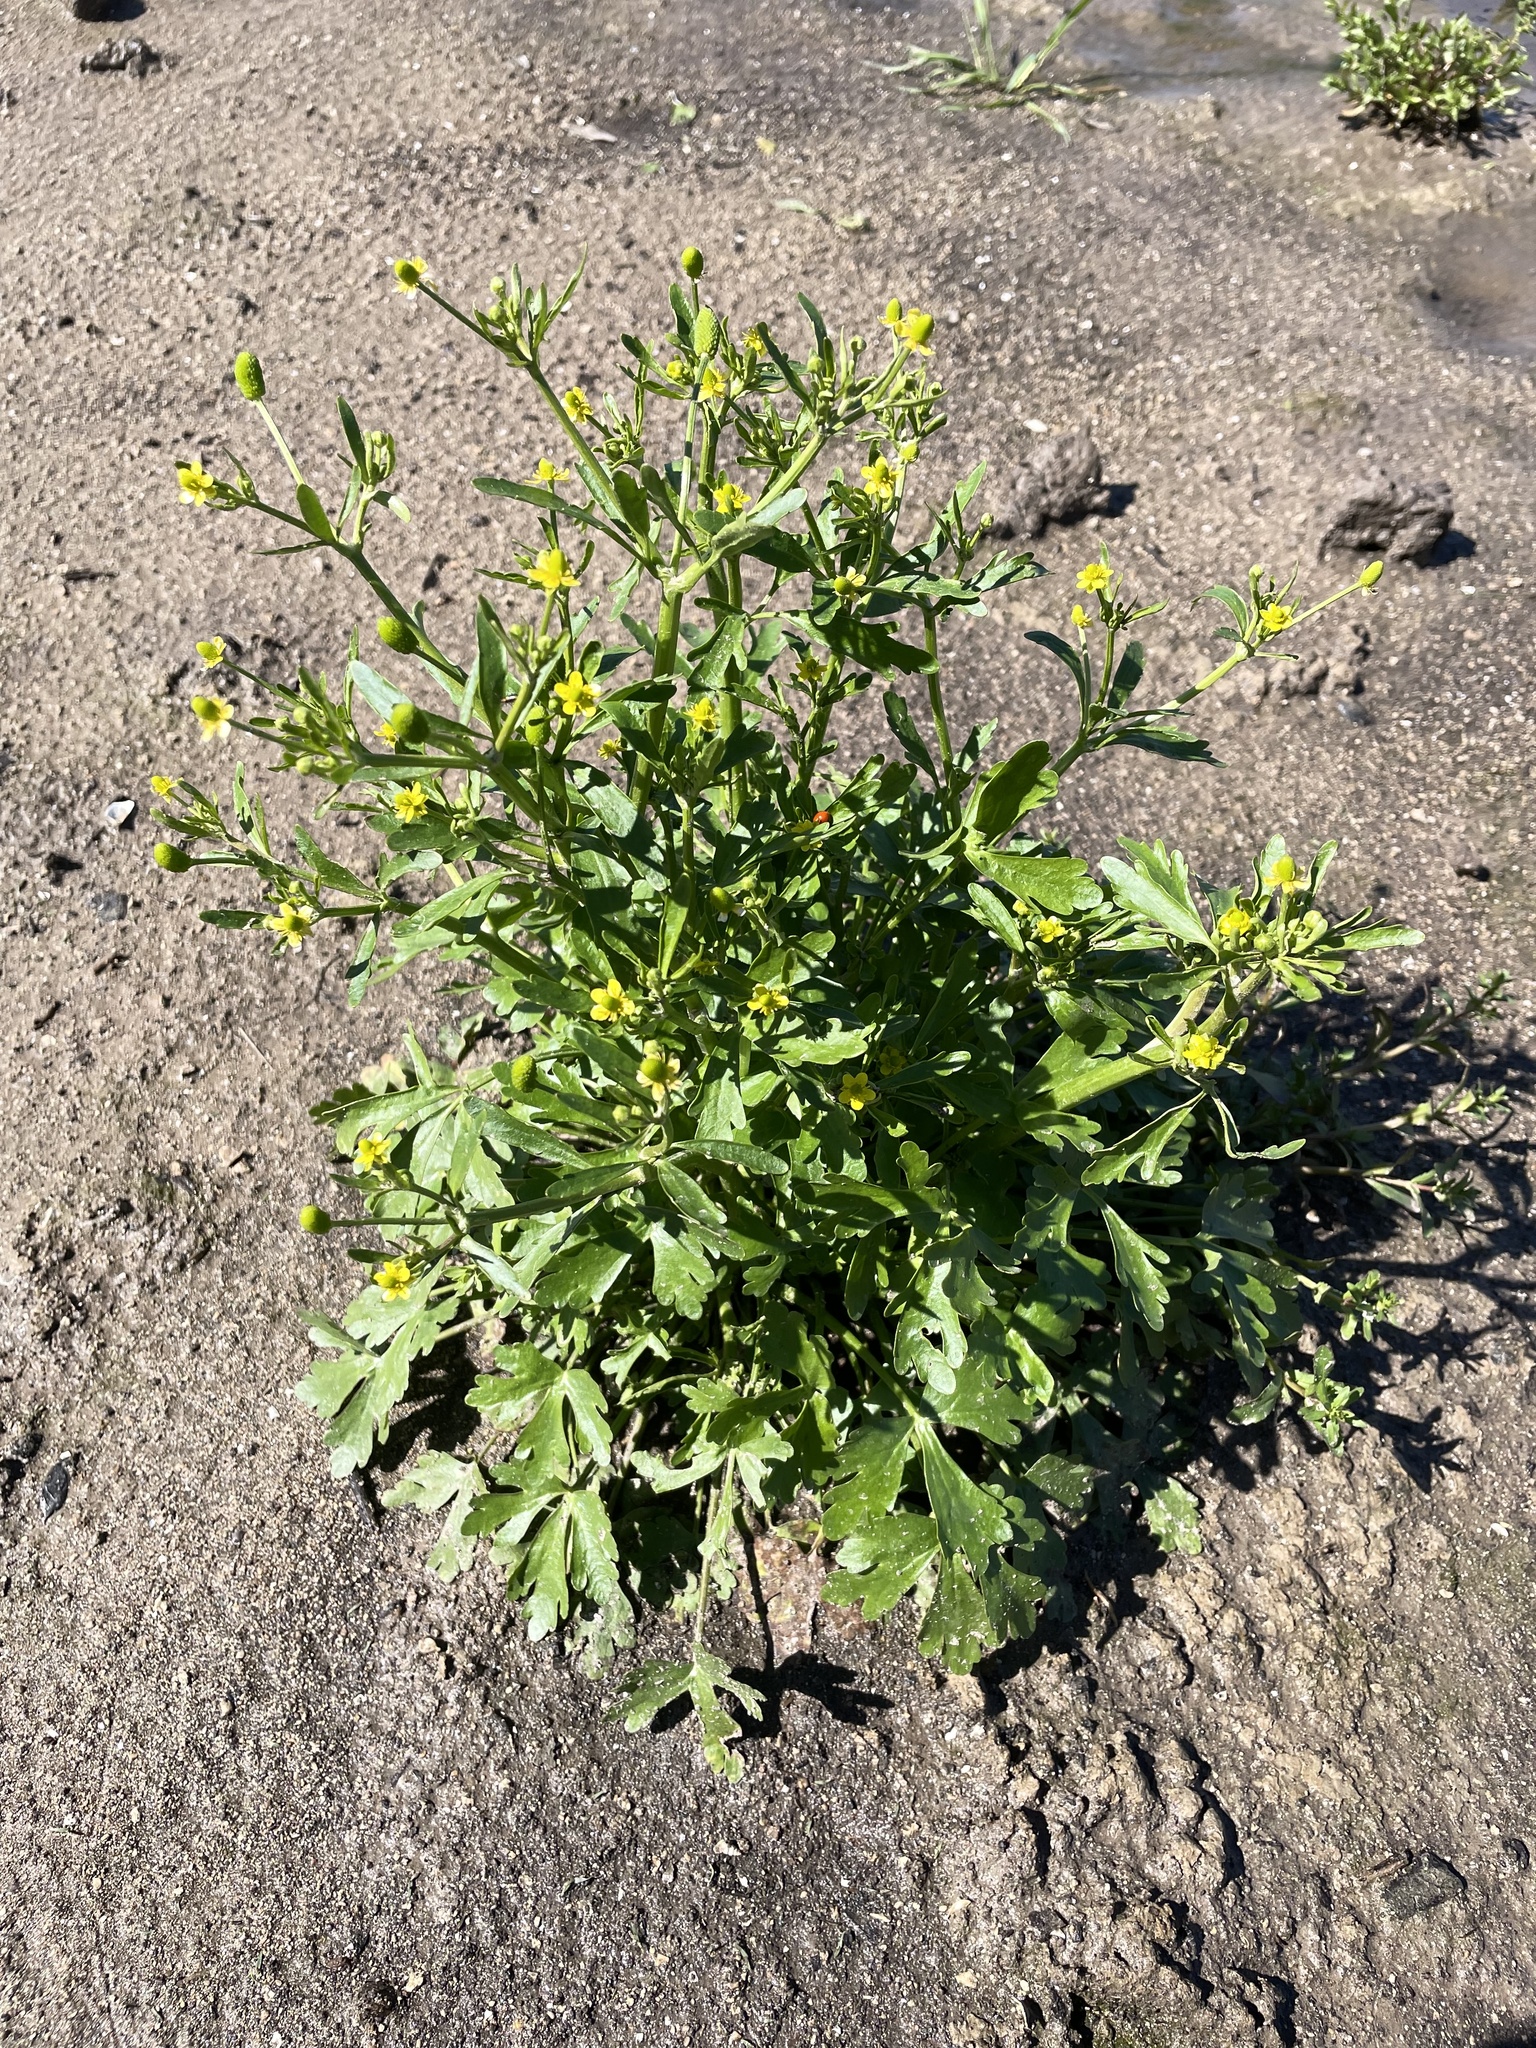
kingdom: Plantae
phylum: Tracheophyta
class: Magnoliopsida
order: Ranunculales
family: Ranunculaceae
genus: Ranunculus
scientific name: Ranunculus sceleratus
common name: Celery-leaved buttercup
